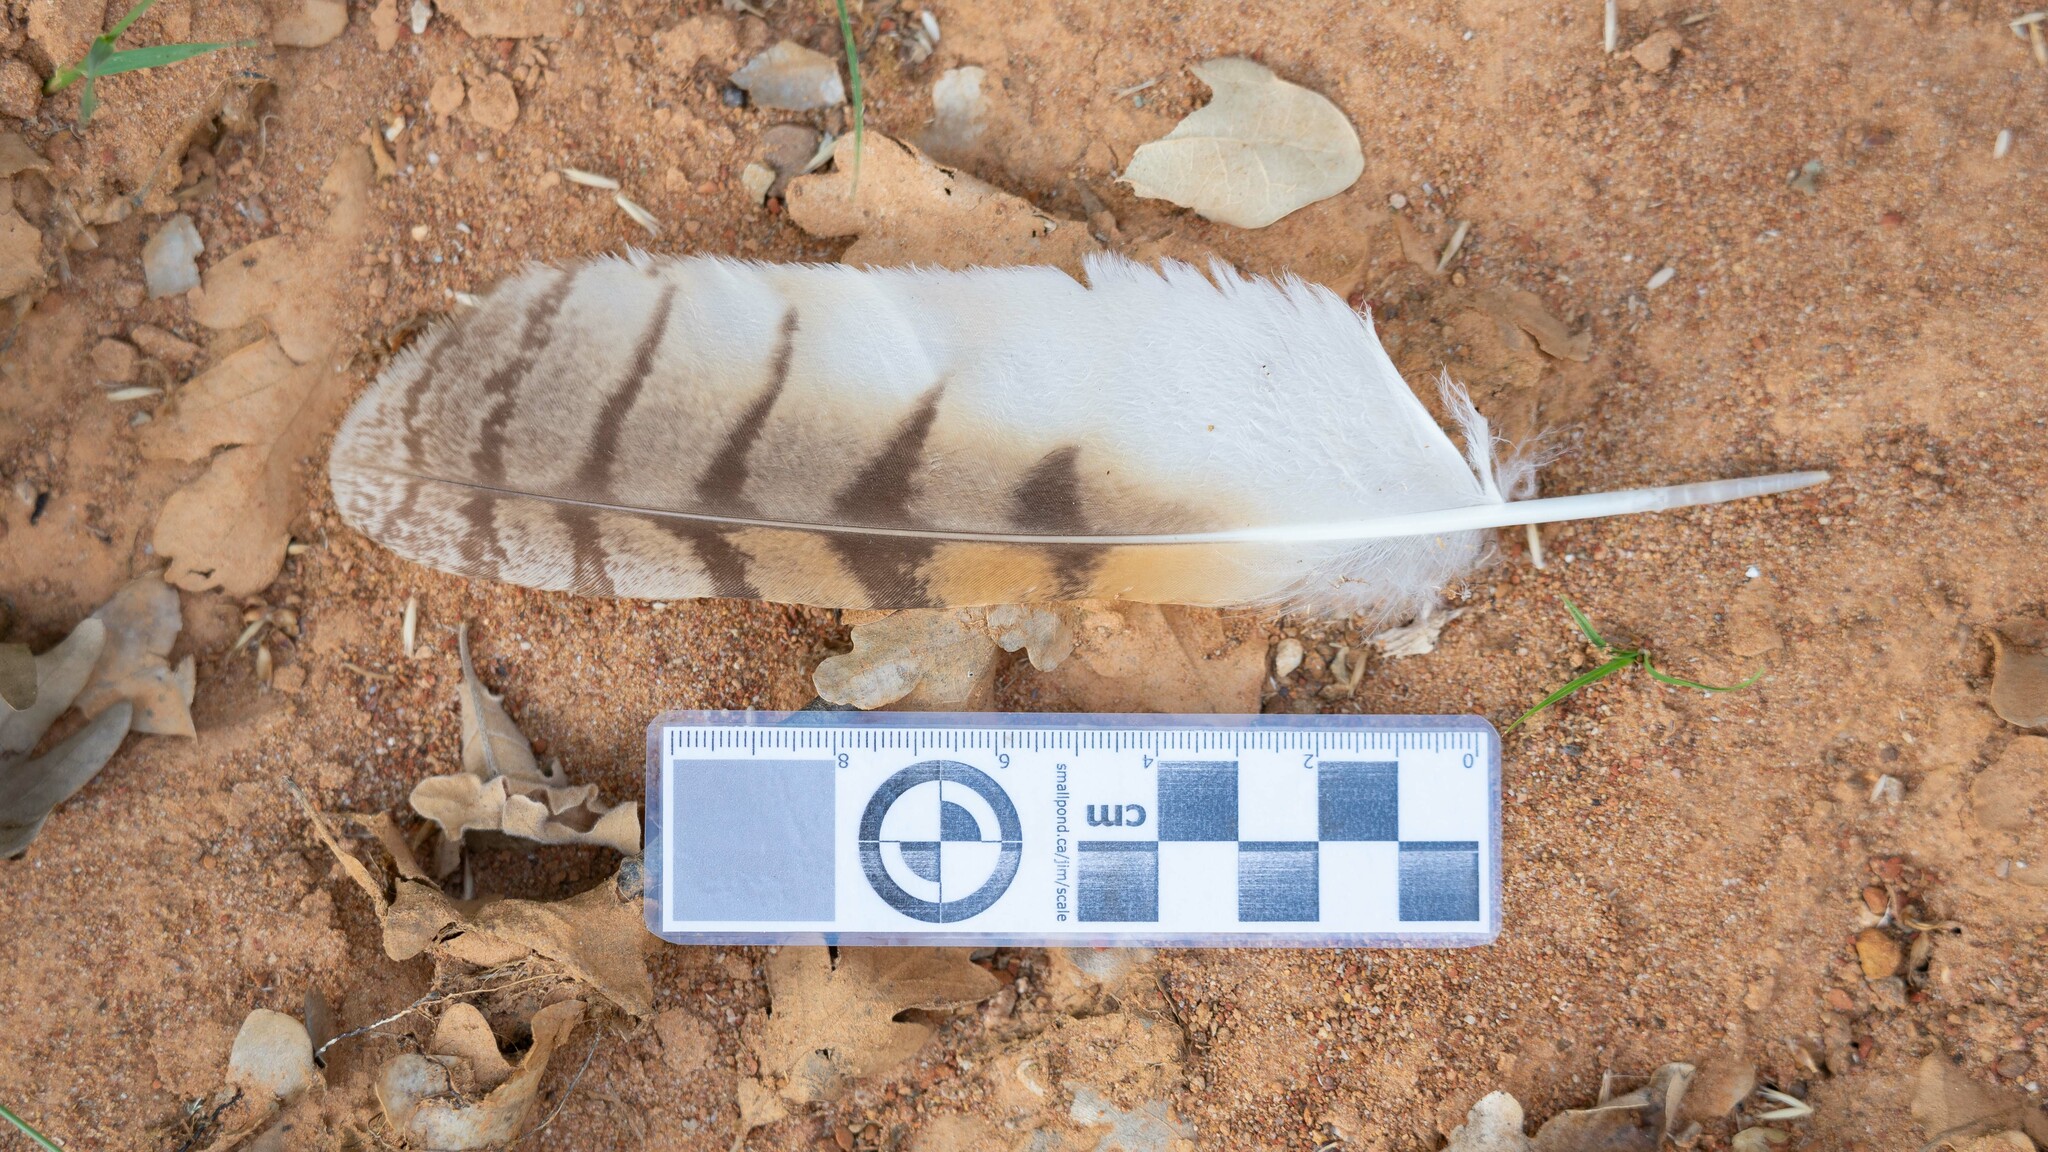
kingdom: Animalia
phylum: Chordata
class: Aves
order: Strigiformes
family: Strigidae
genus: Asio
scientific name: Asio otus
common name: Long-eared owl
